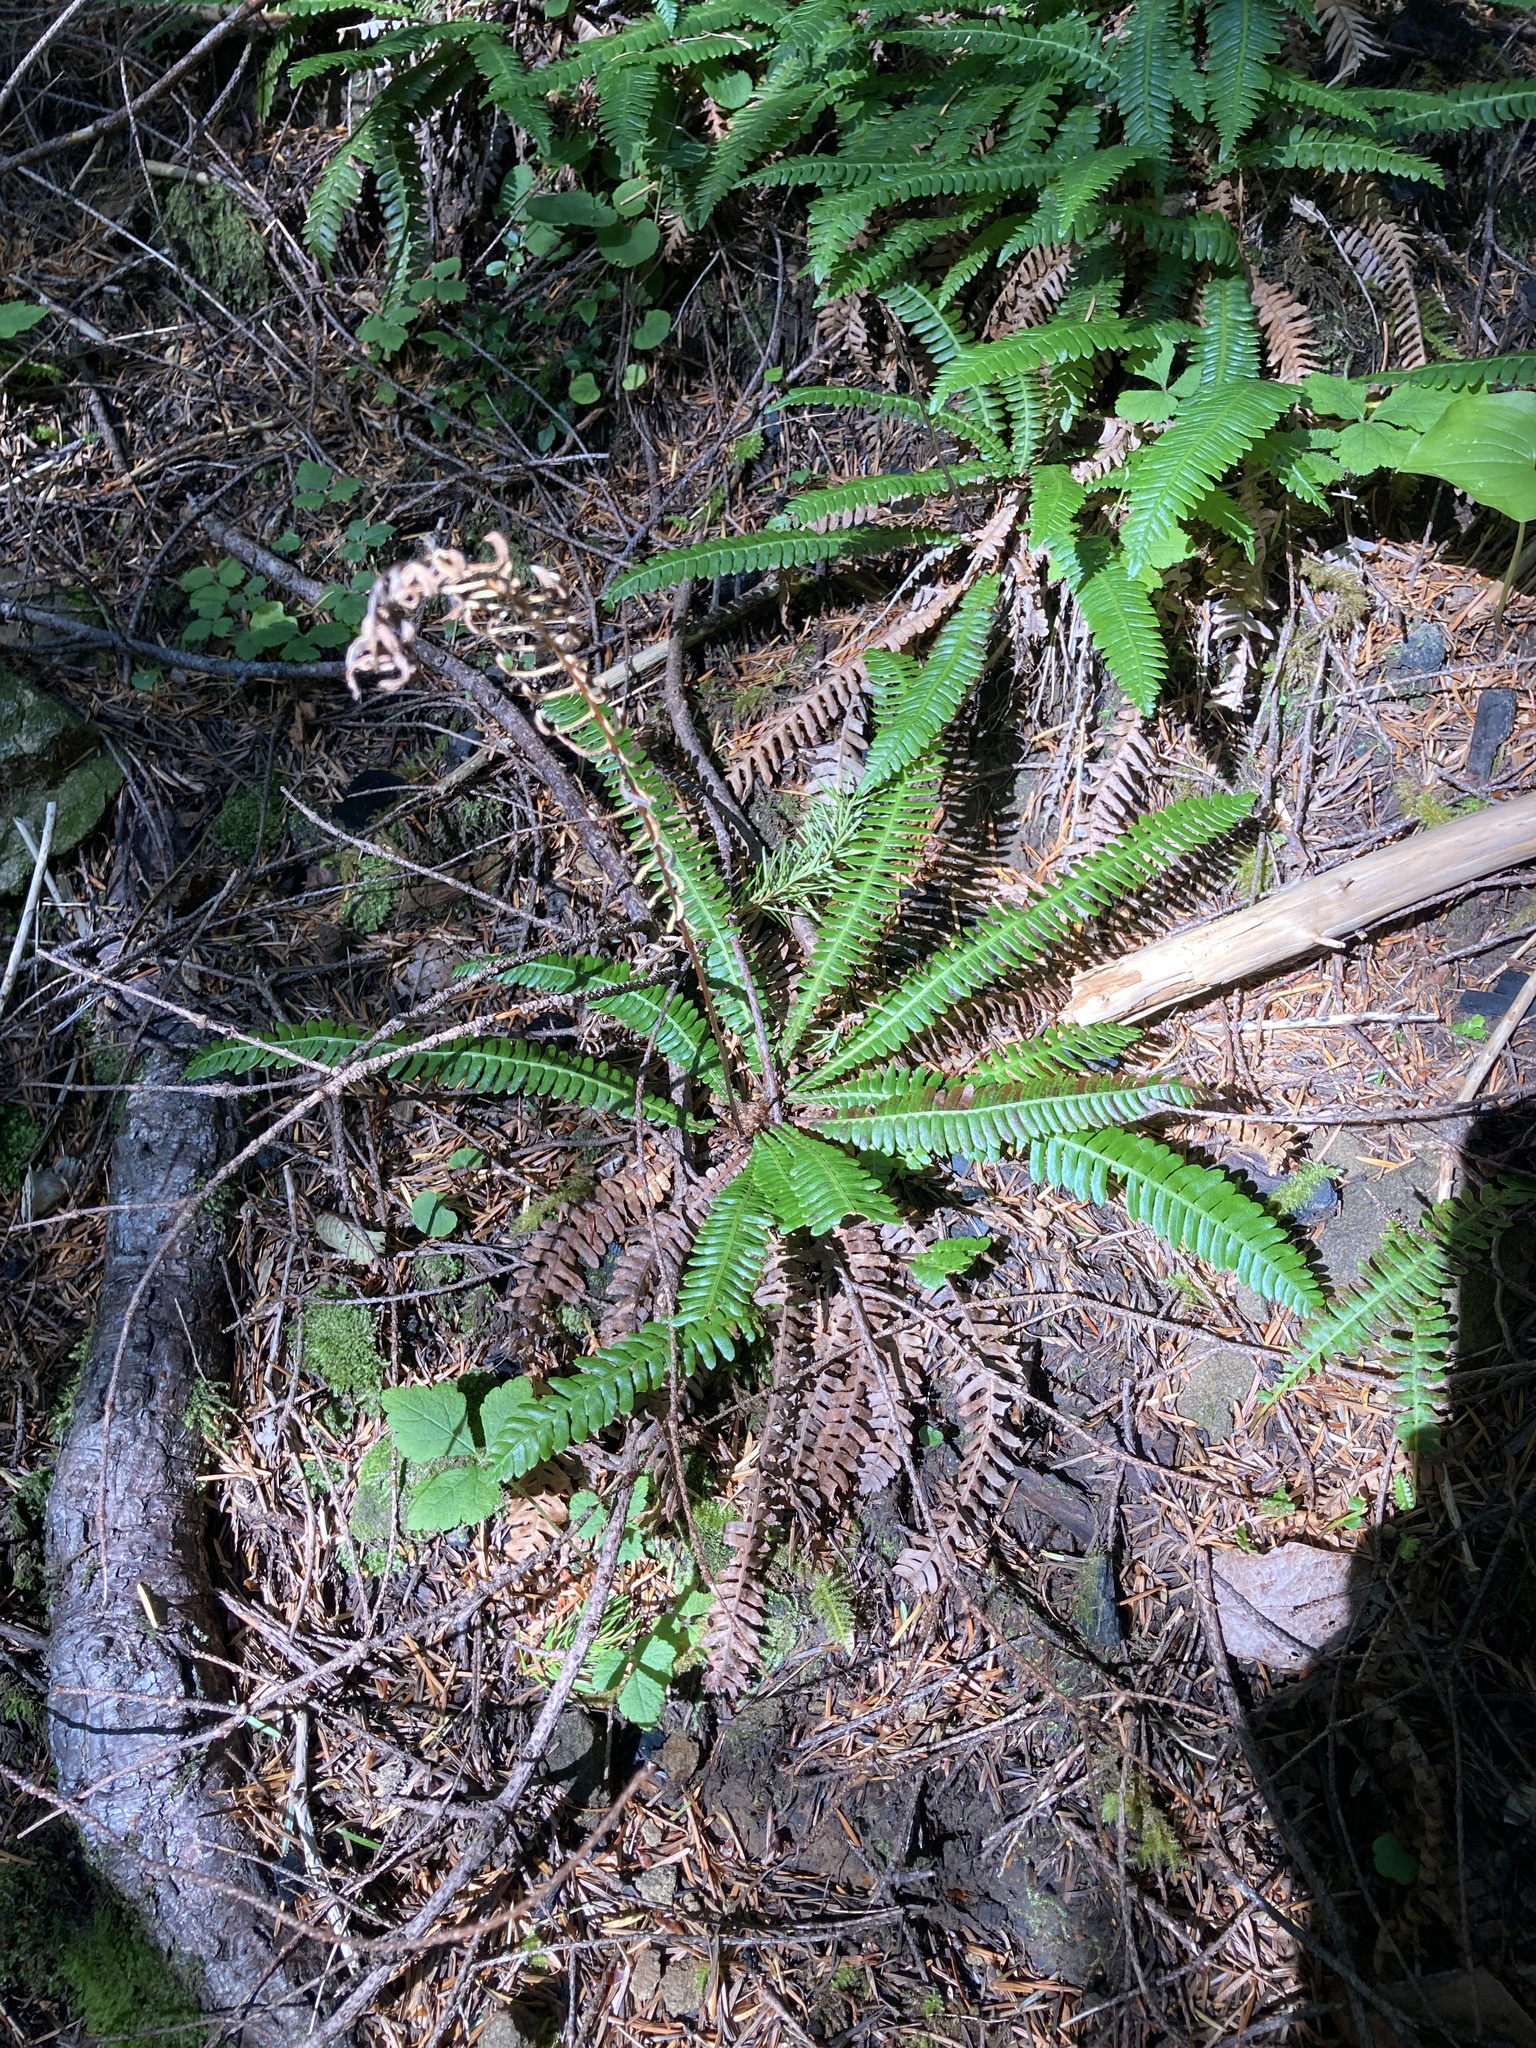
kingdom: Plantae
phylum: Tracheophyta
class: Polypodiopsida
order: Polypodiales
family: Blechnaceae
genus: Struthiopteris
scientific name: Struthiopteris spicant
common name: Deer fern
